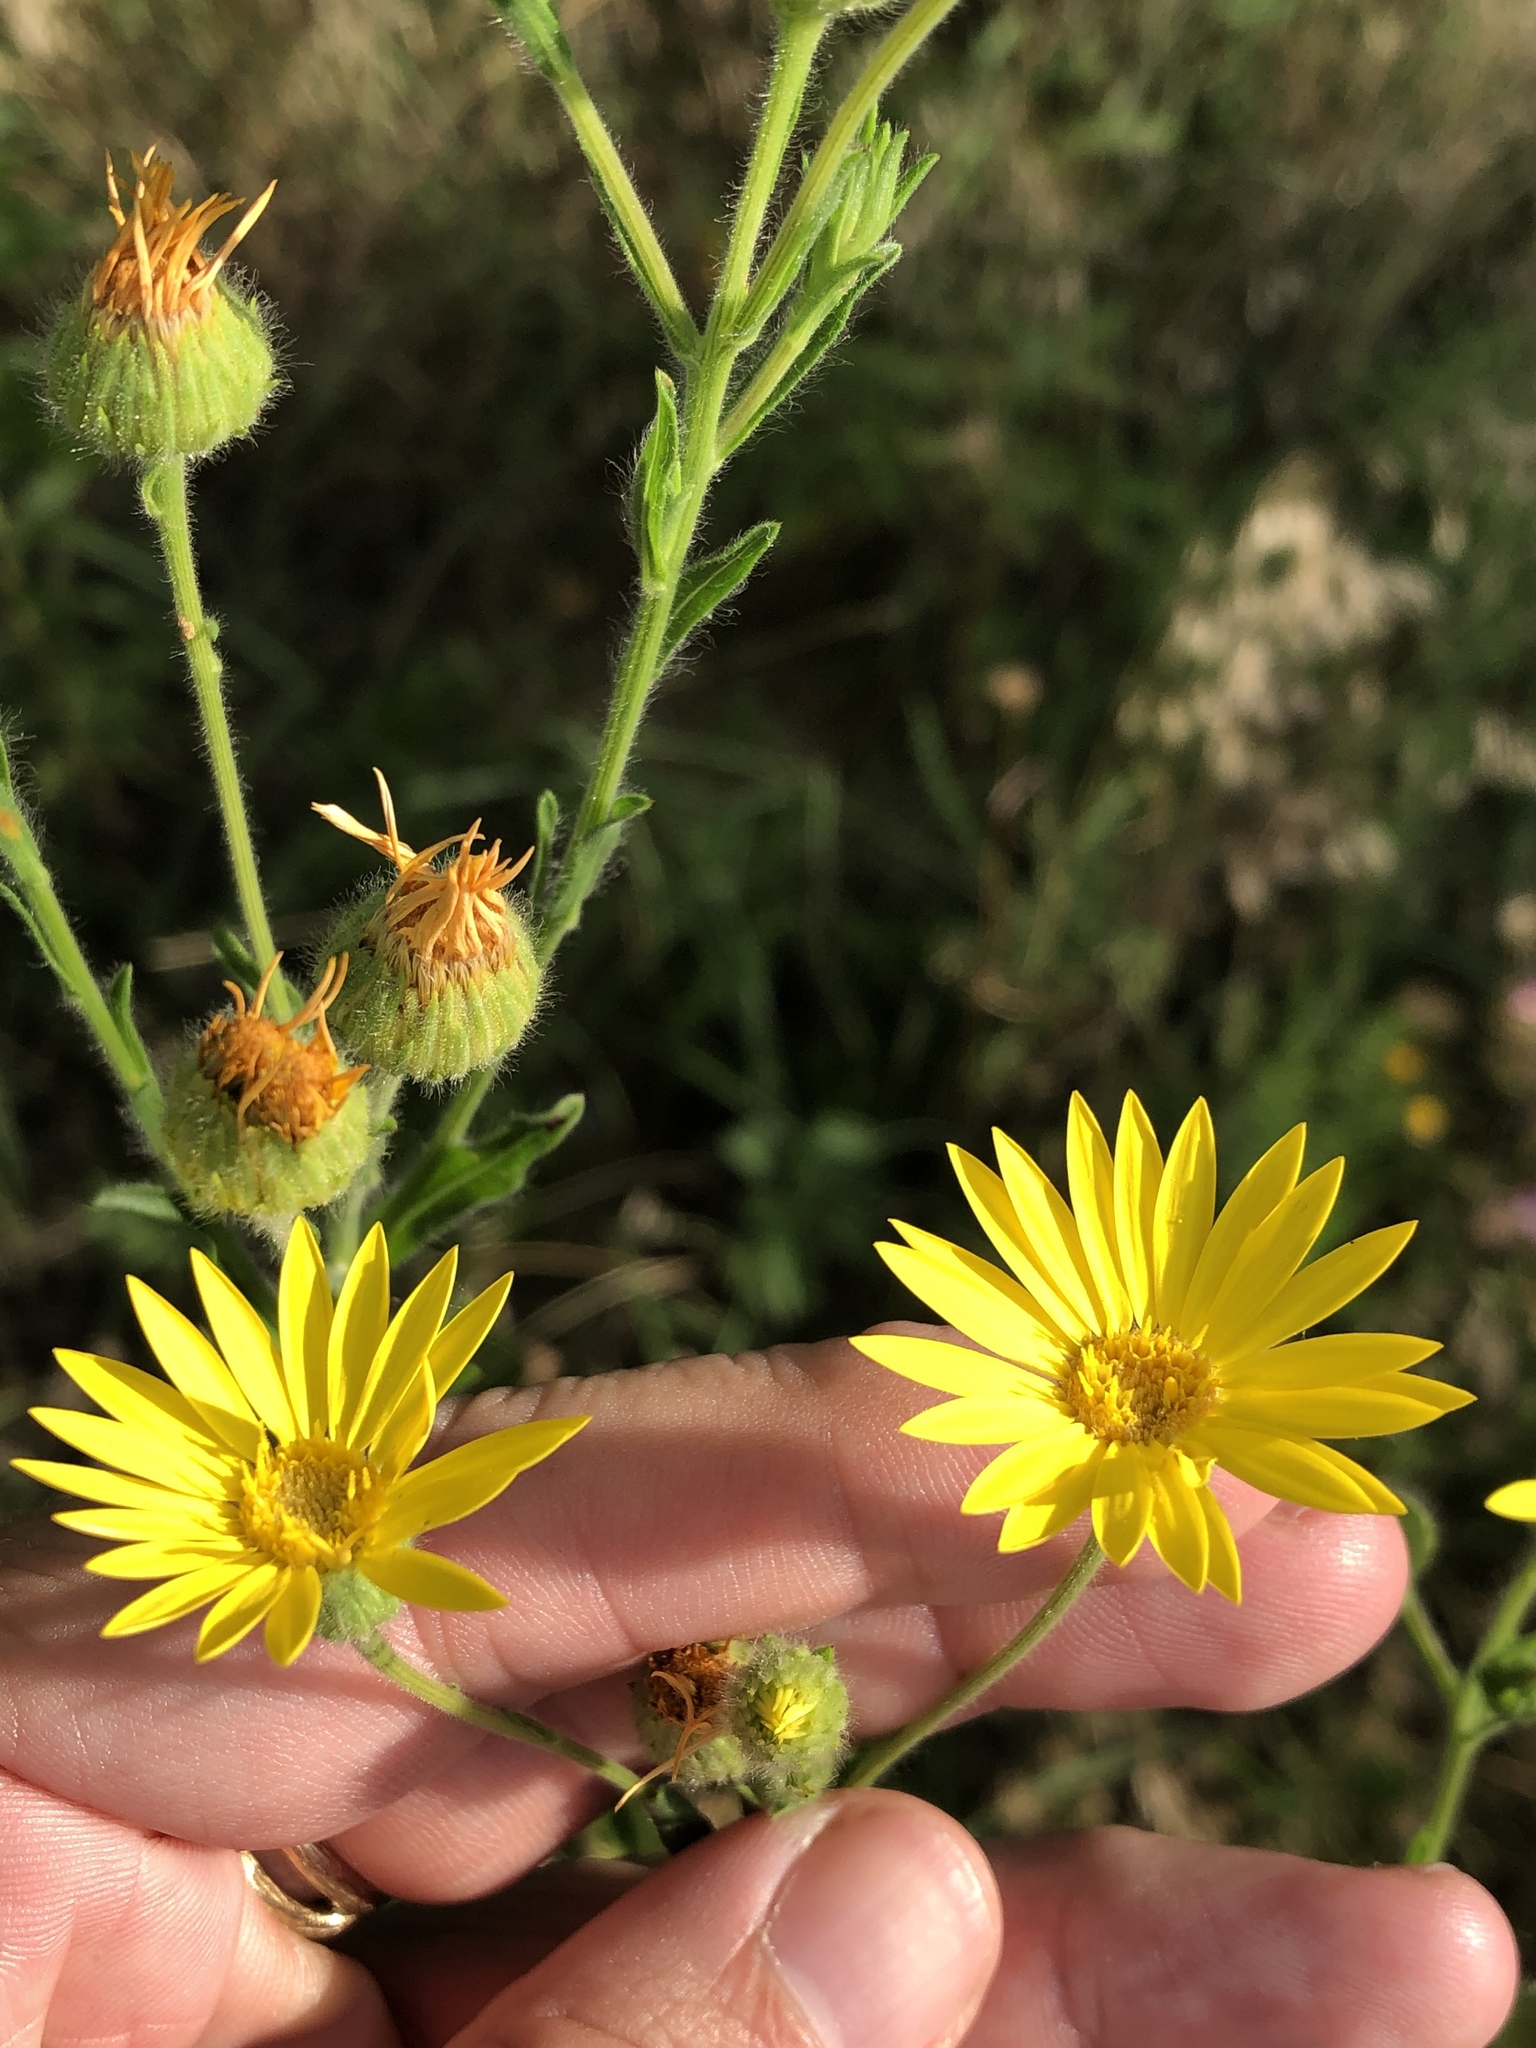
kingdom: Plantae
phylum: Tracheophyta
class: Magnoliopsida
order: Asterales
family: Asteraceae
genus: Bradburia
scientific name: Bradburia pilosa
